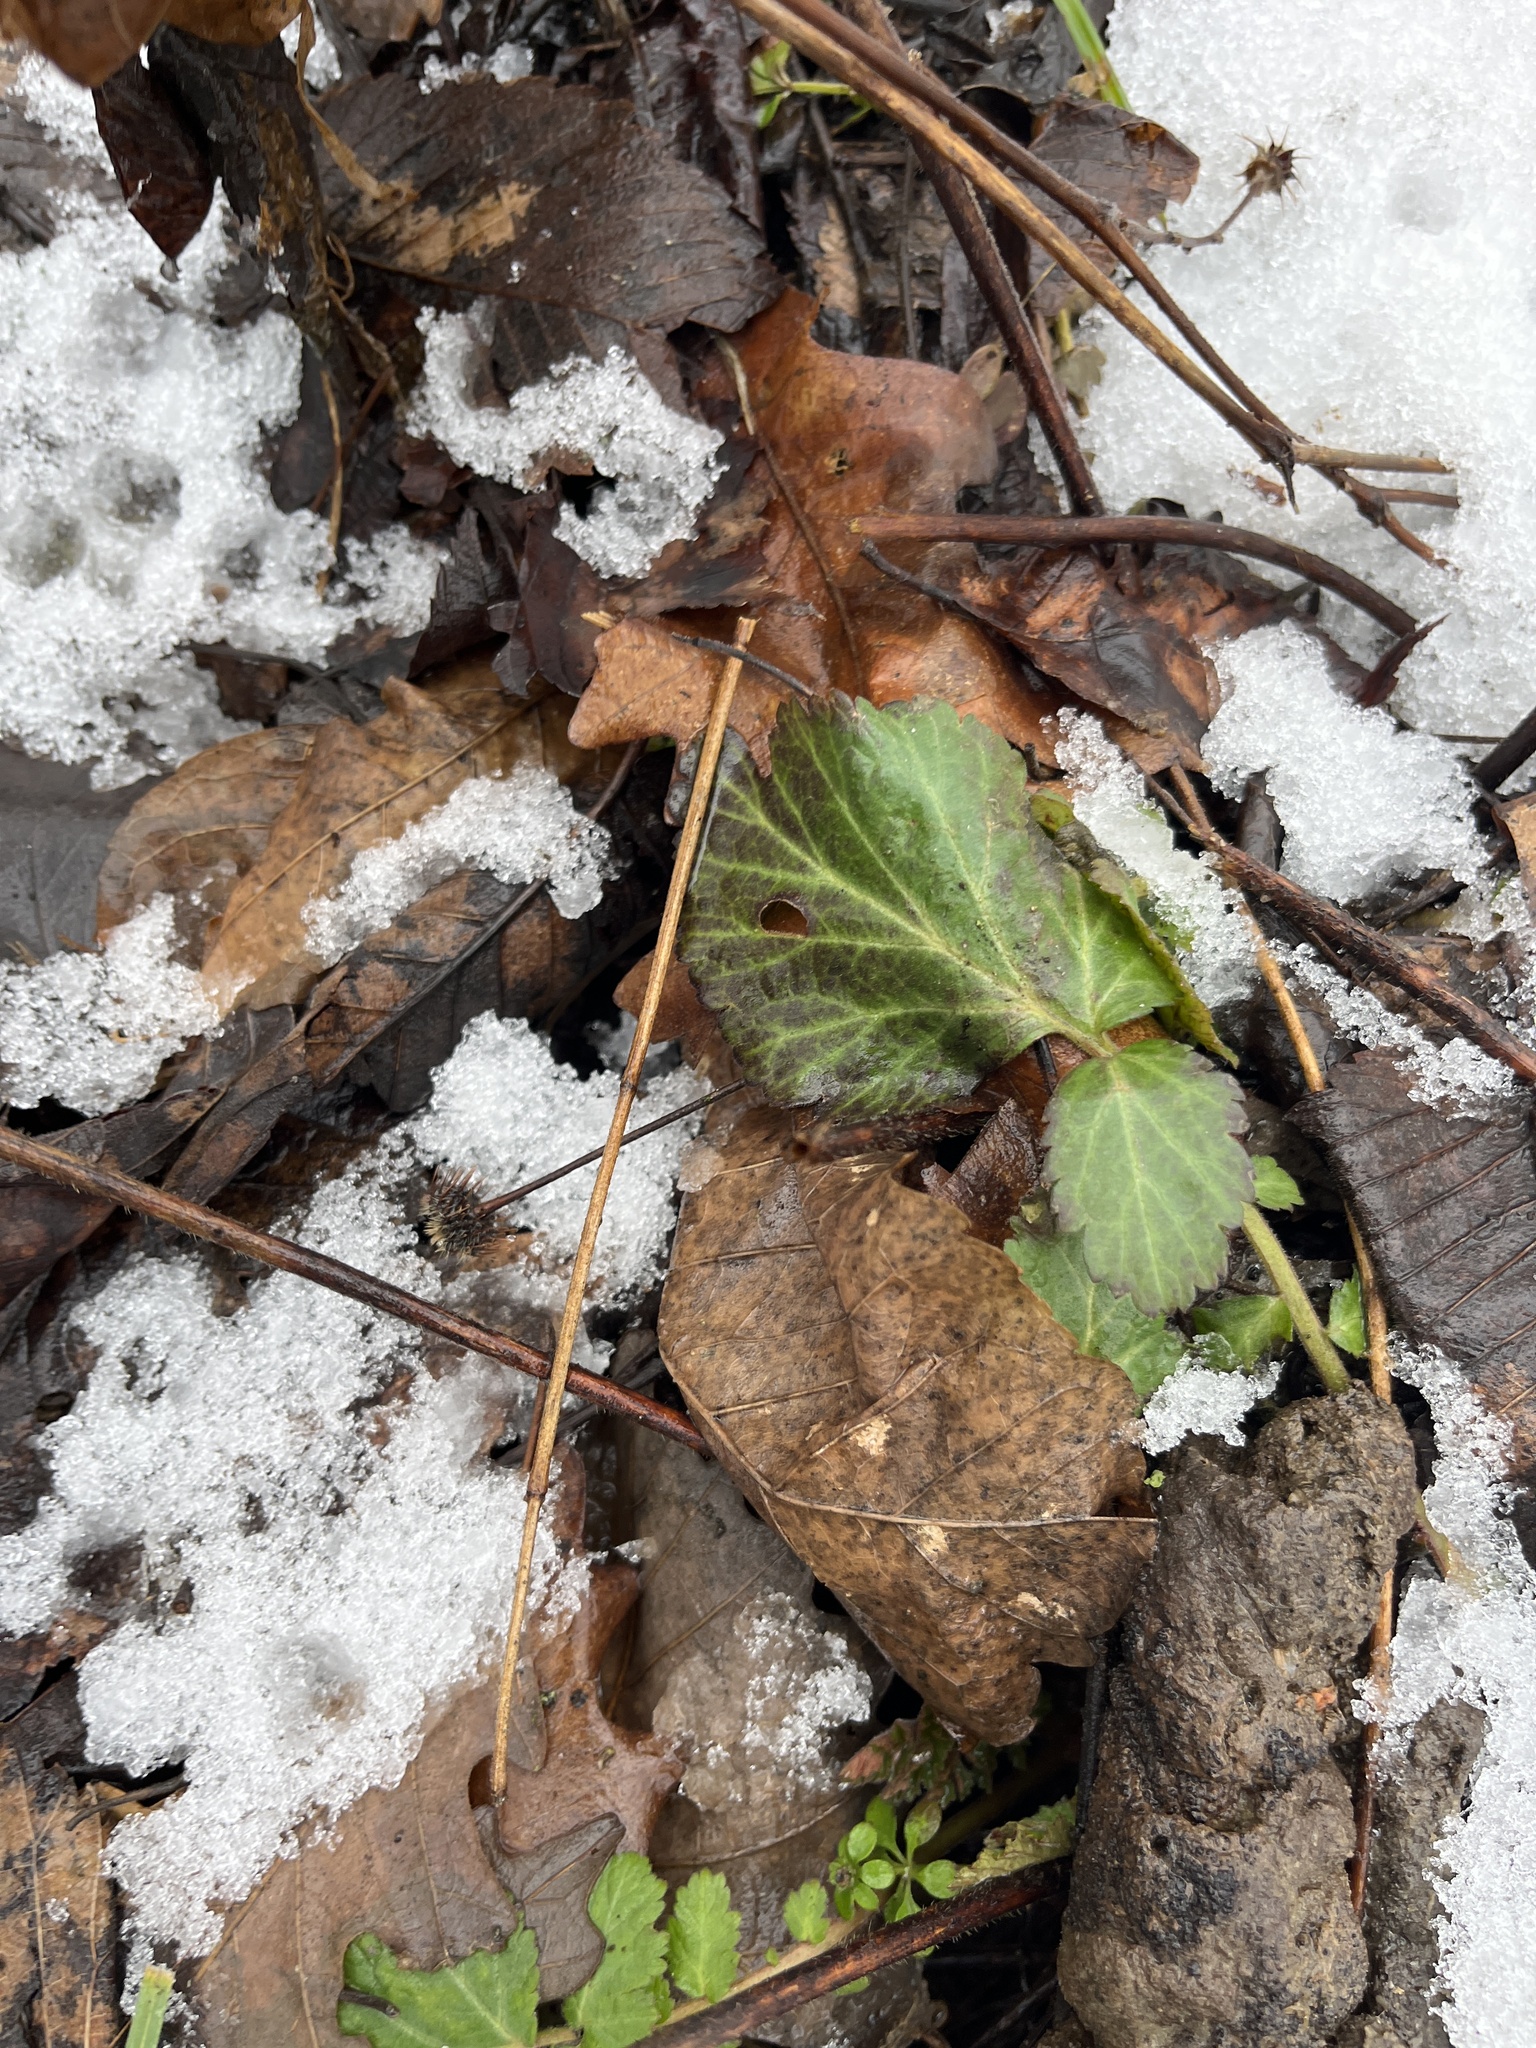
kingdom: Plantae
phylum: Tracheophyta
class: Magnoliopsida
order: Rosales
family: Rosaceae
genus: Geum
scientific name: Geum canadense
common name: White avens
